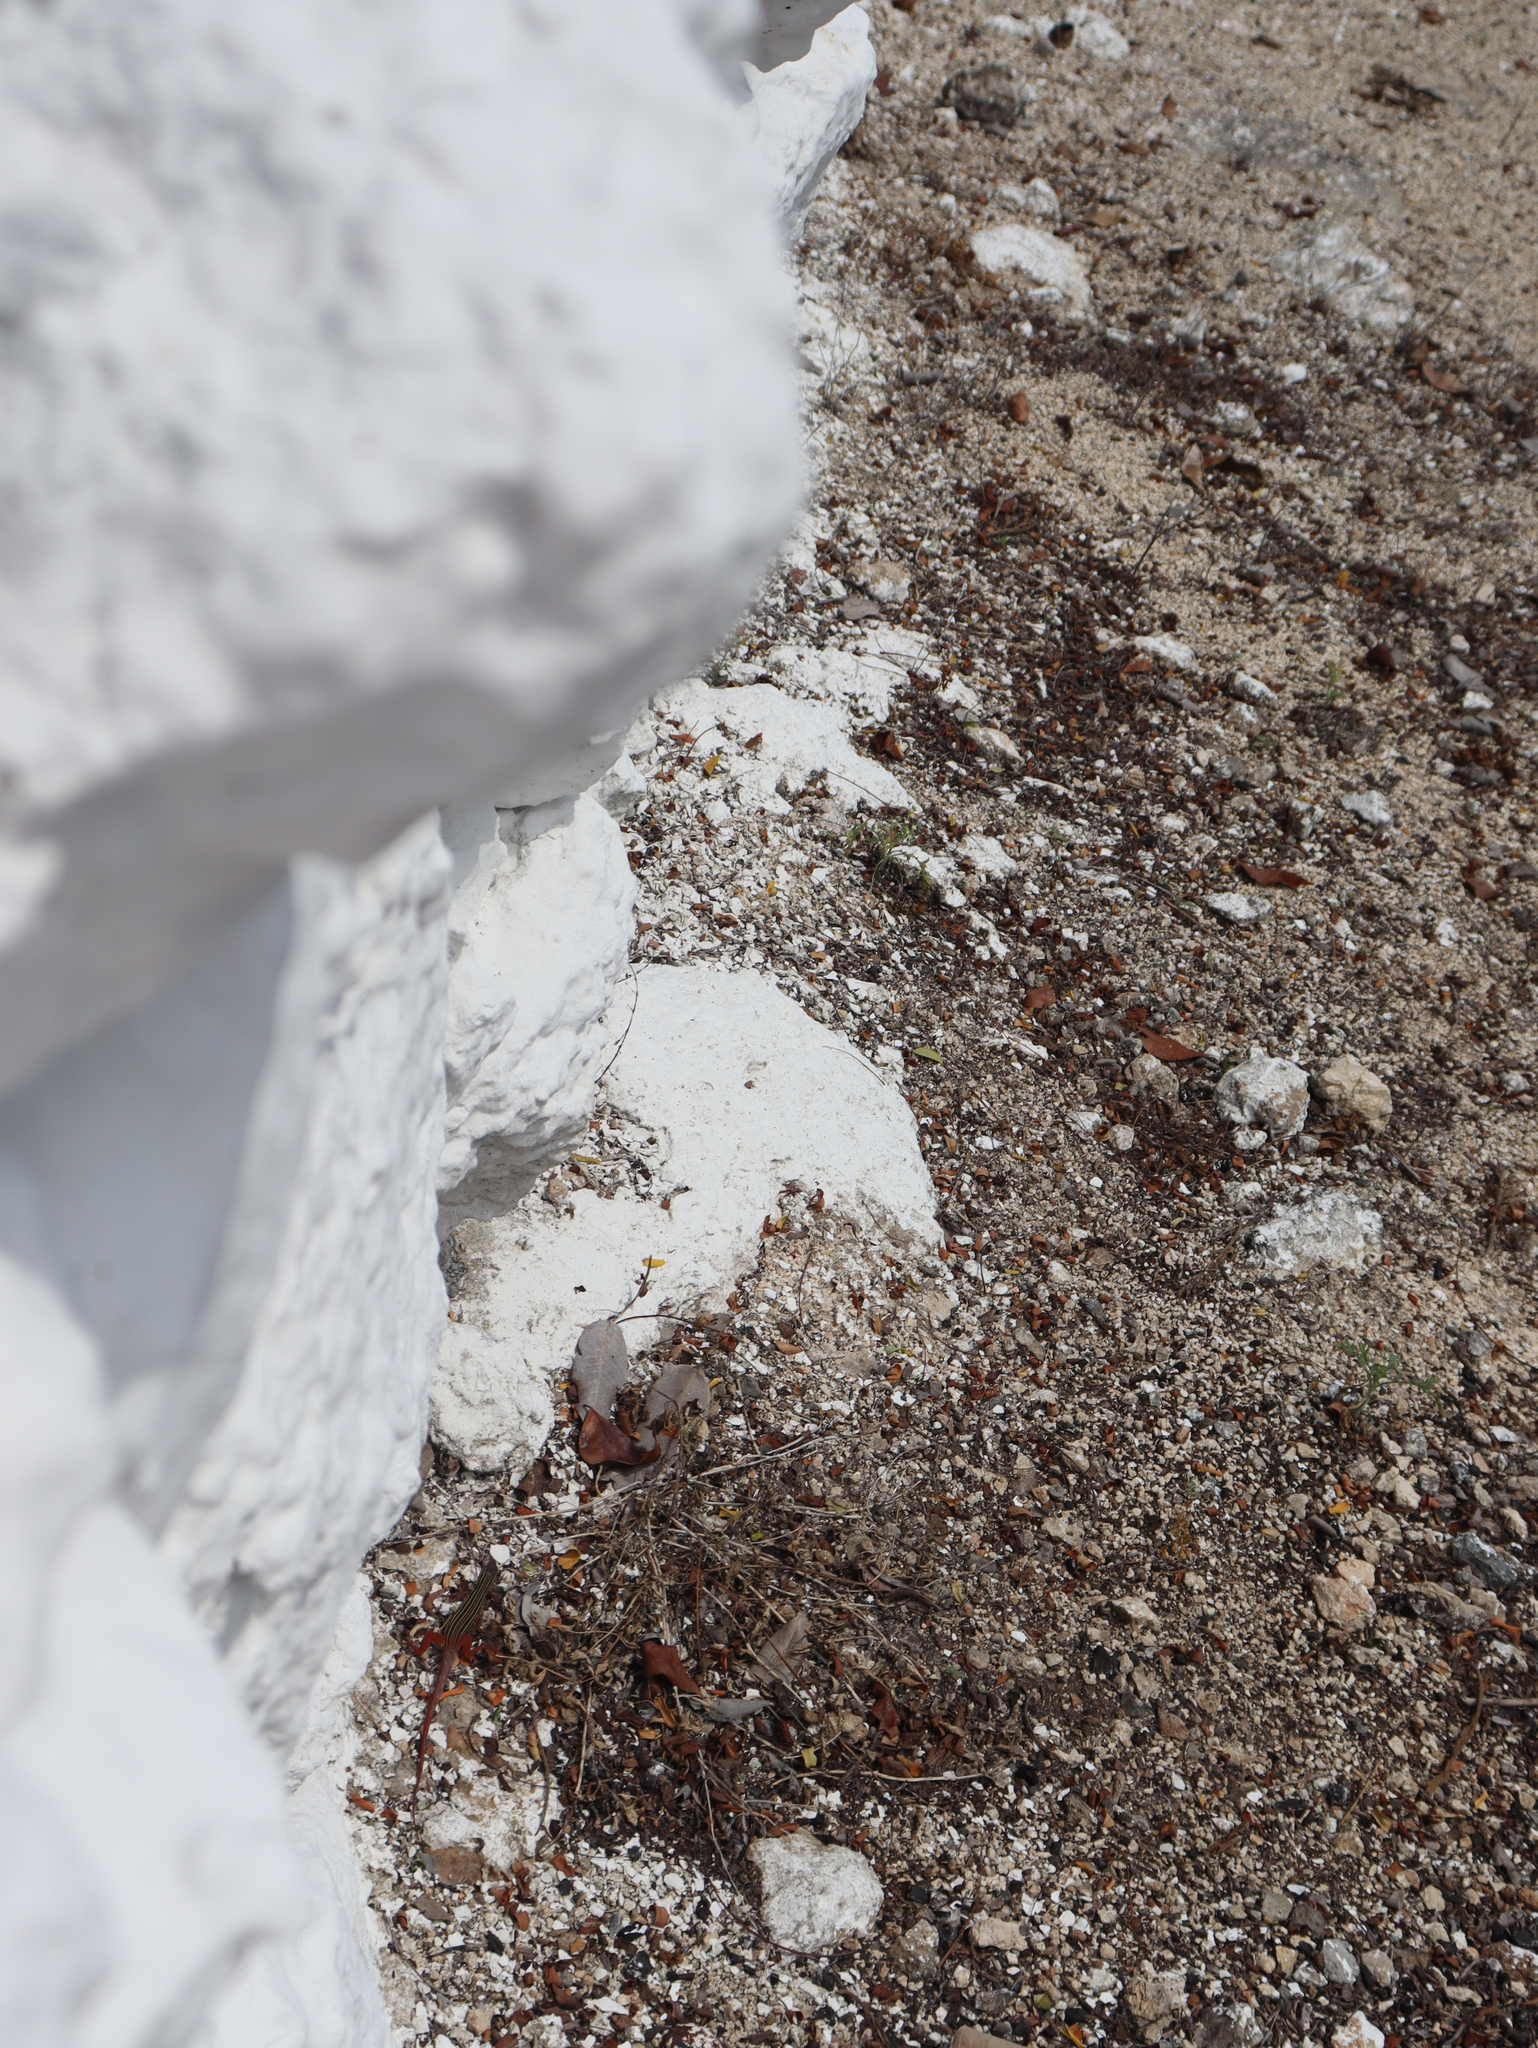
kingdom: Animalia
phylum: Chordata
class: Squamata
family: Teiidae
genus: Aspidoscelis
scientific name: Aspidoscelis angusticeps
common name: Yucatan whiptail
